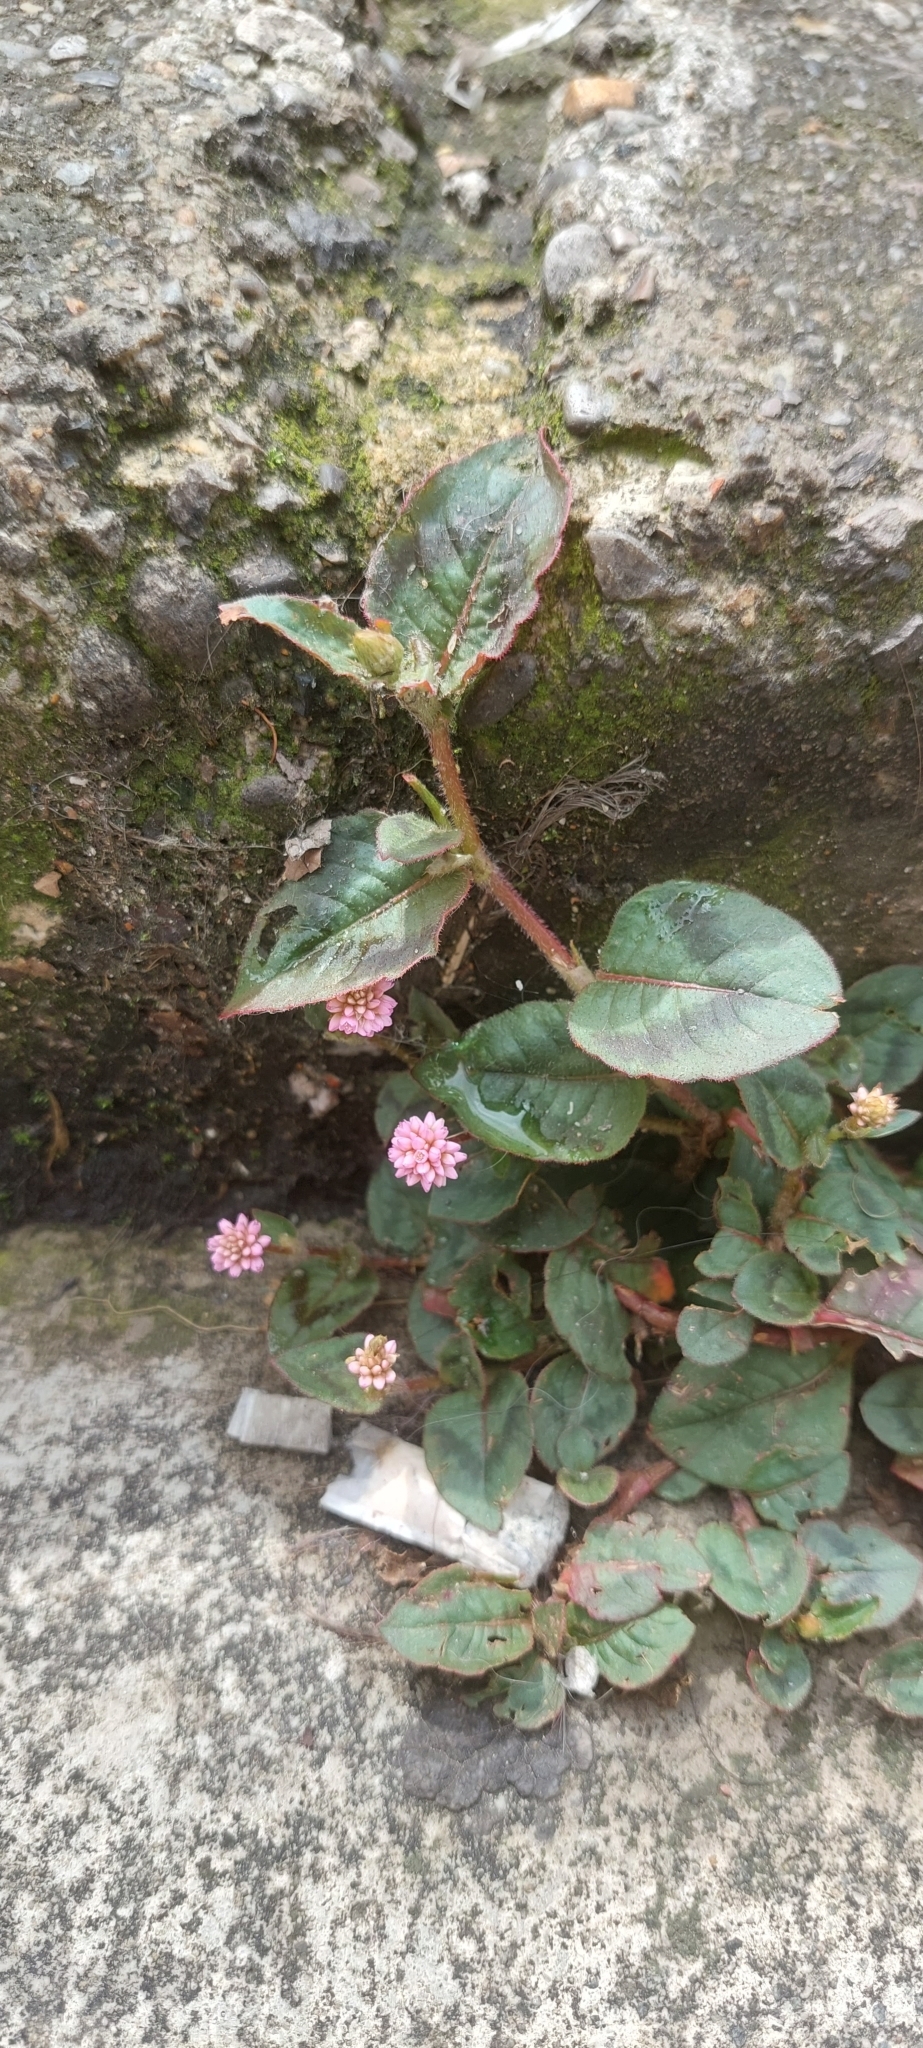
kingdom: Plantae
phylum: Tracheophyta
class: Magnoliopsida
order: Caryophyllales
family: Polygonaceae
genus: Persicaria
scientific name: Persicaria capitata
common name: Pinkhead smartweed
